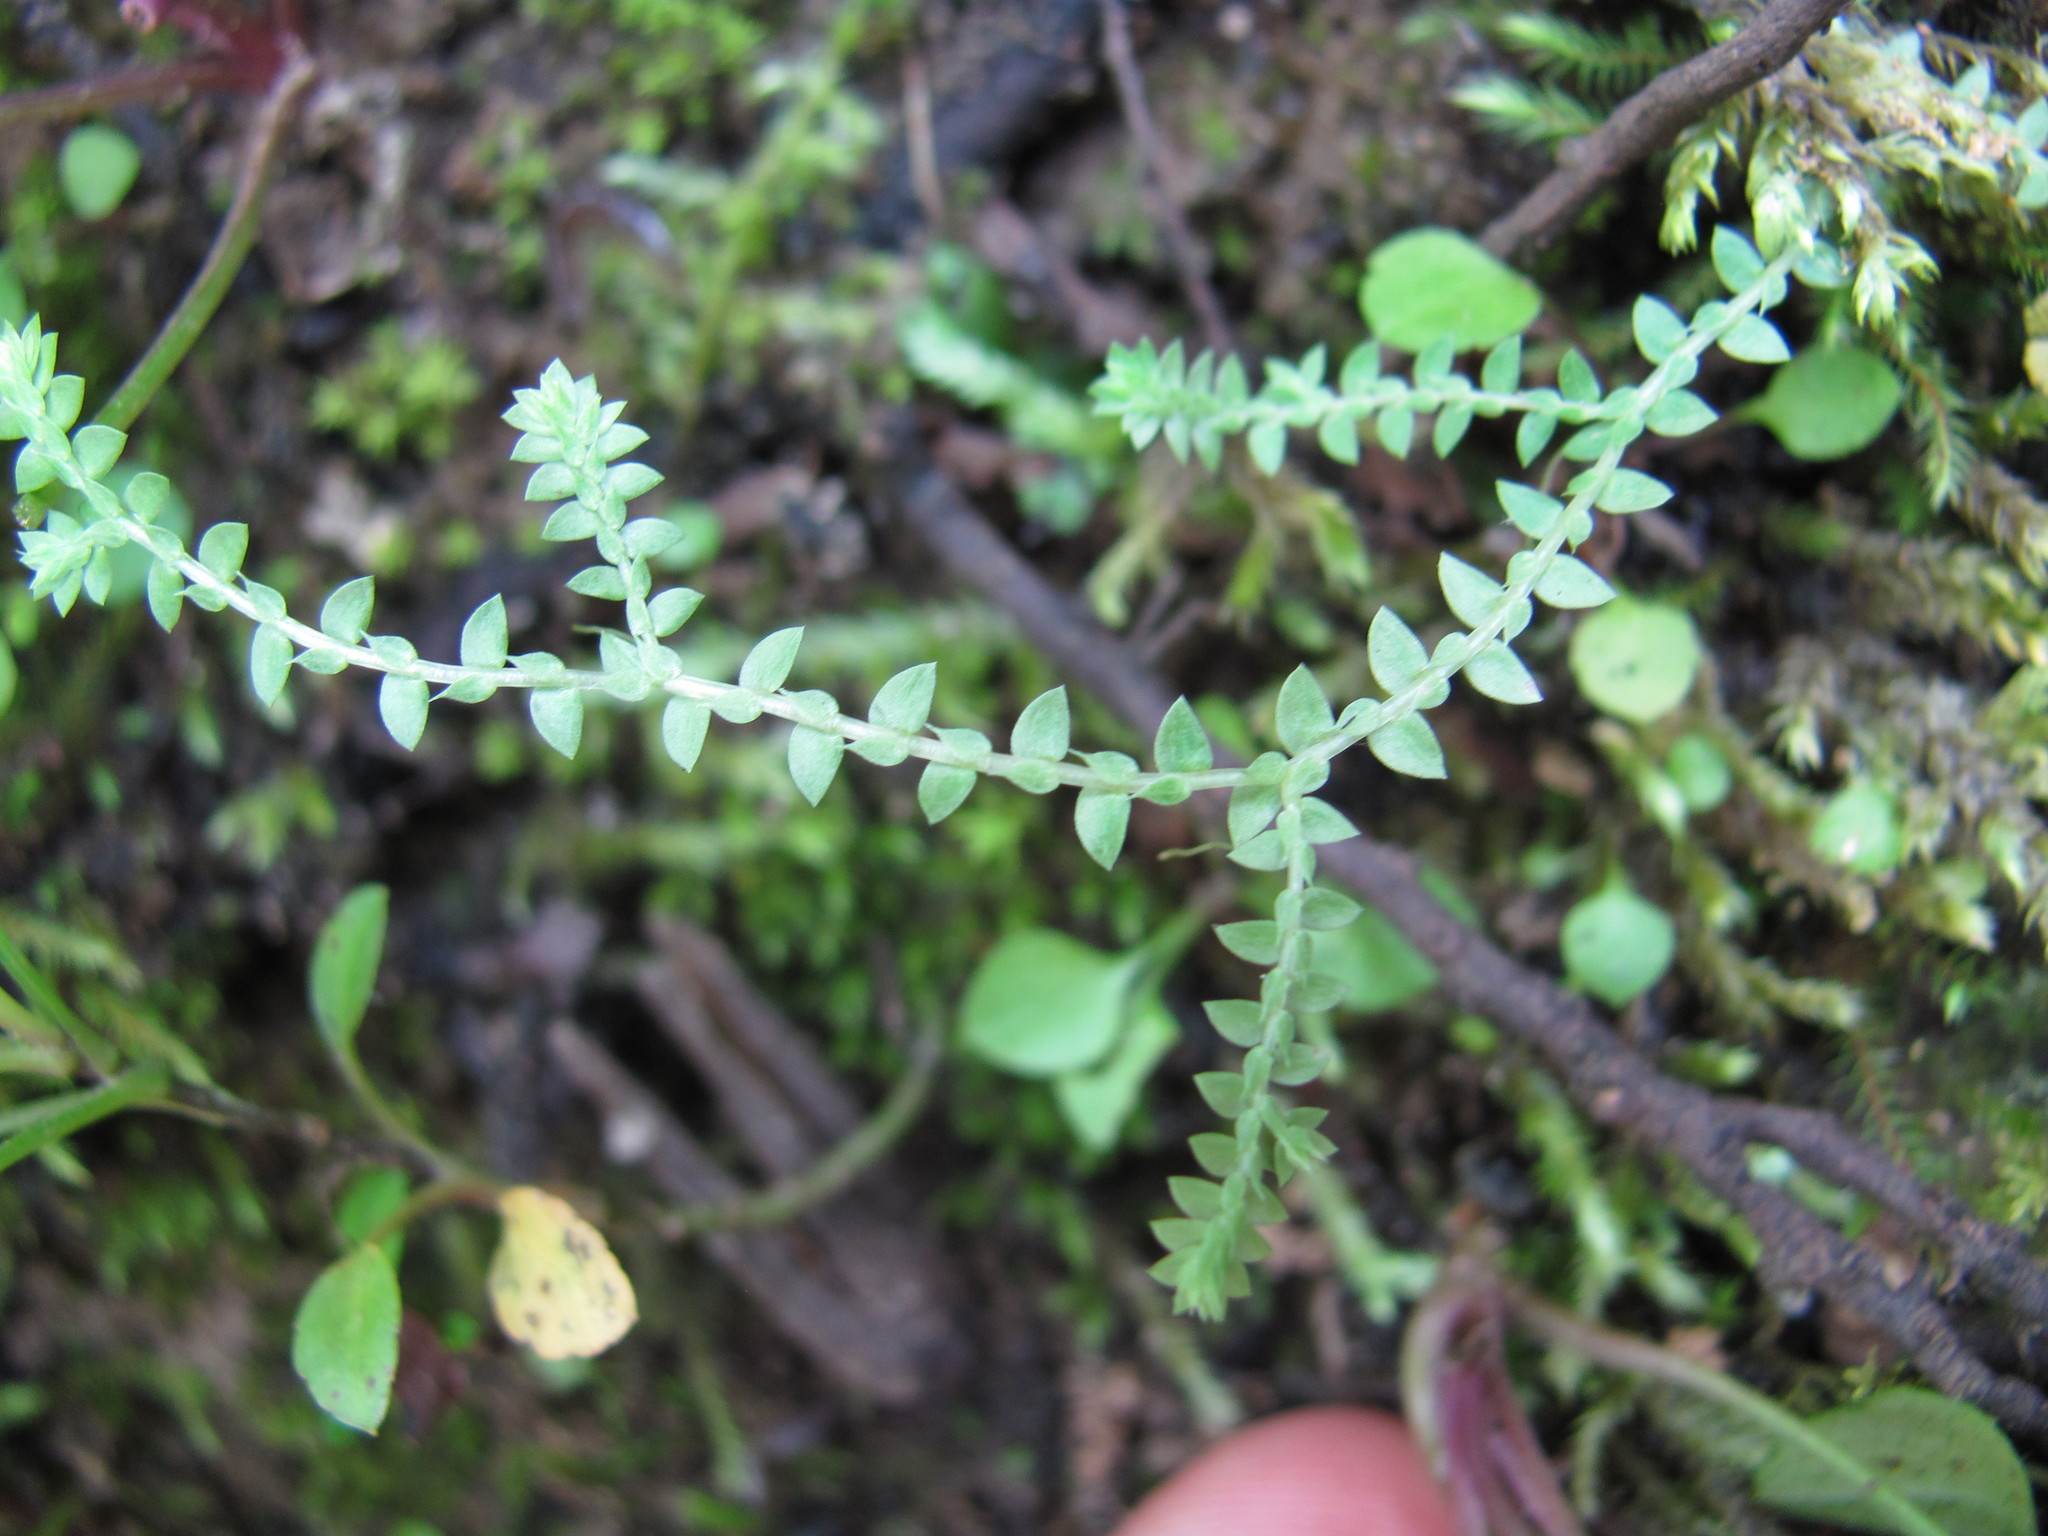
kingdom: Plantae
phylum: Tracheophyta
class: Lycopodiopsida
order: Selaginellales
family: Selaginellaceae
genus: Selaginella
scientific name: Selaginella apoda
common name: Creeping spikemoss
